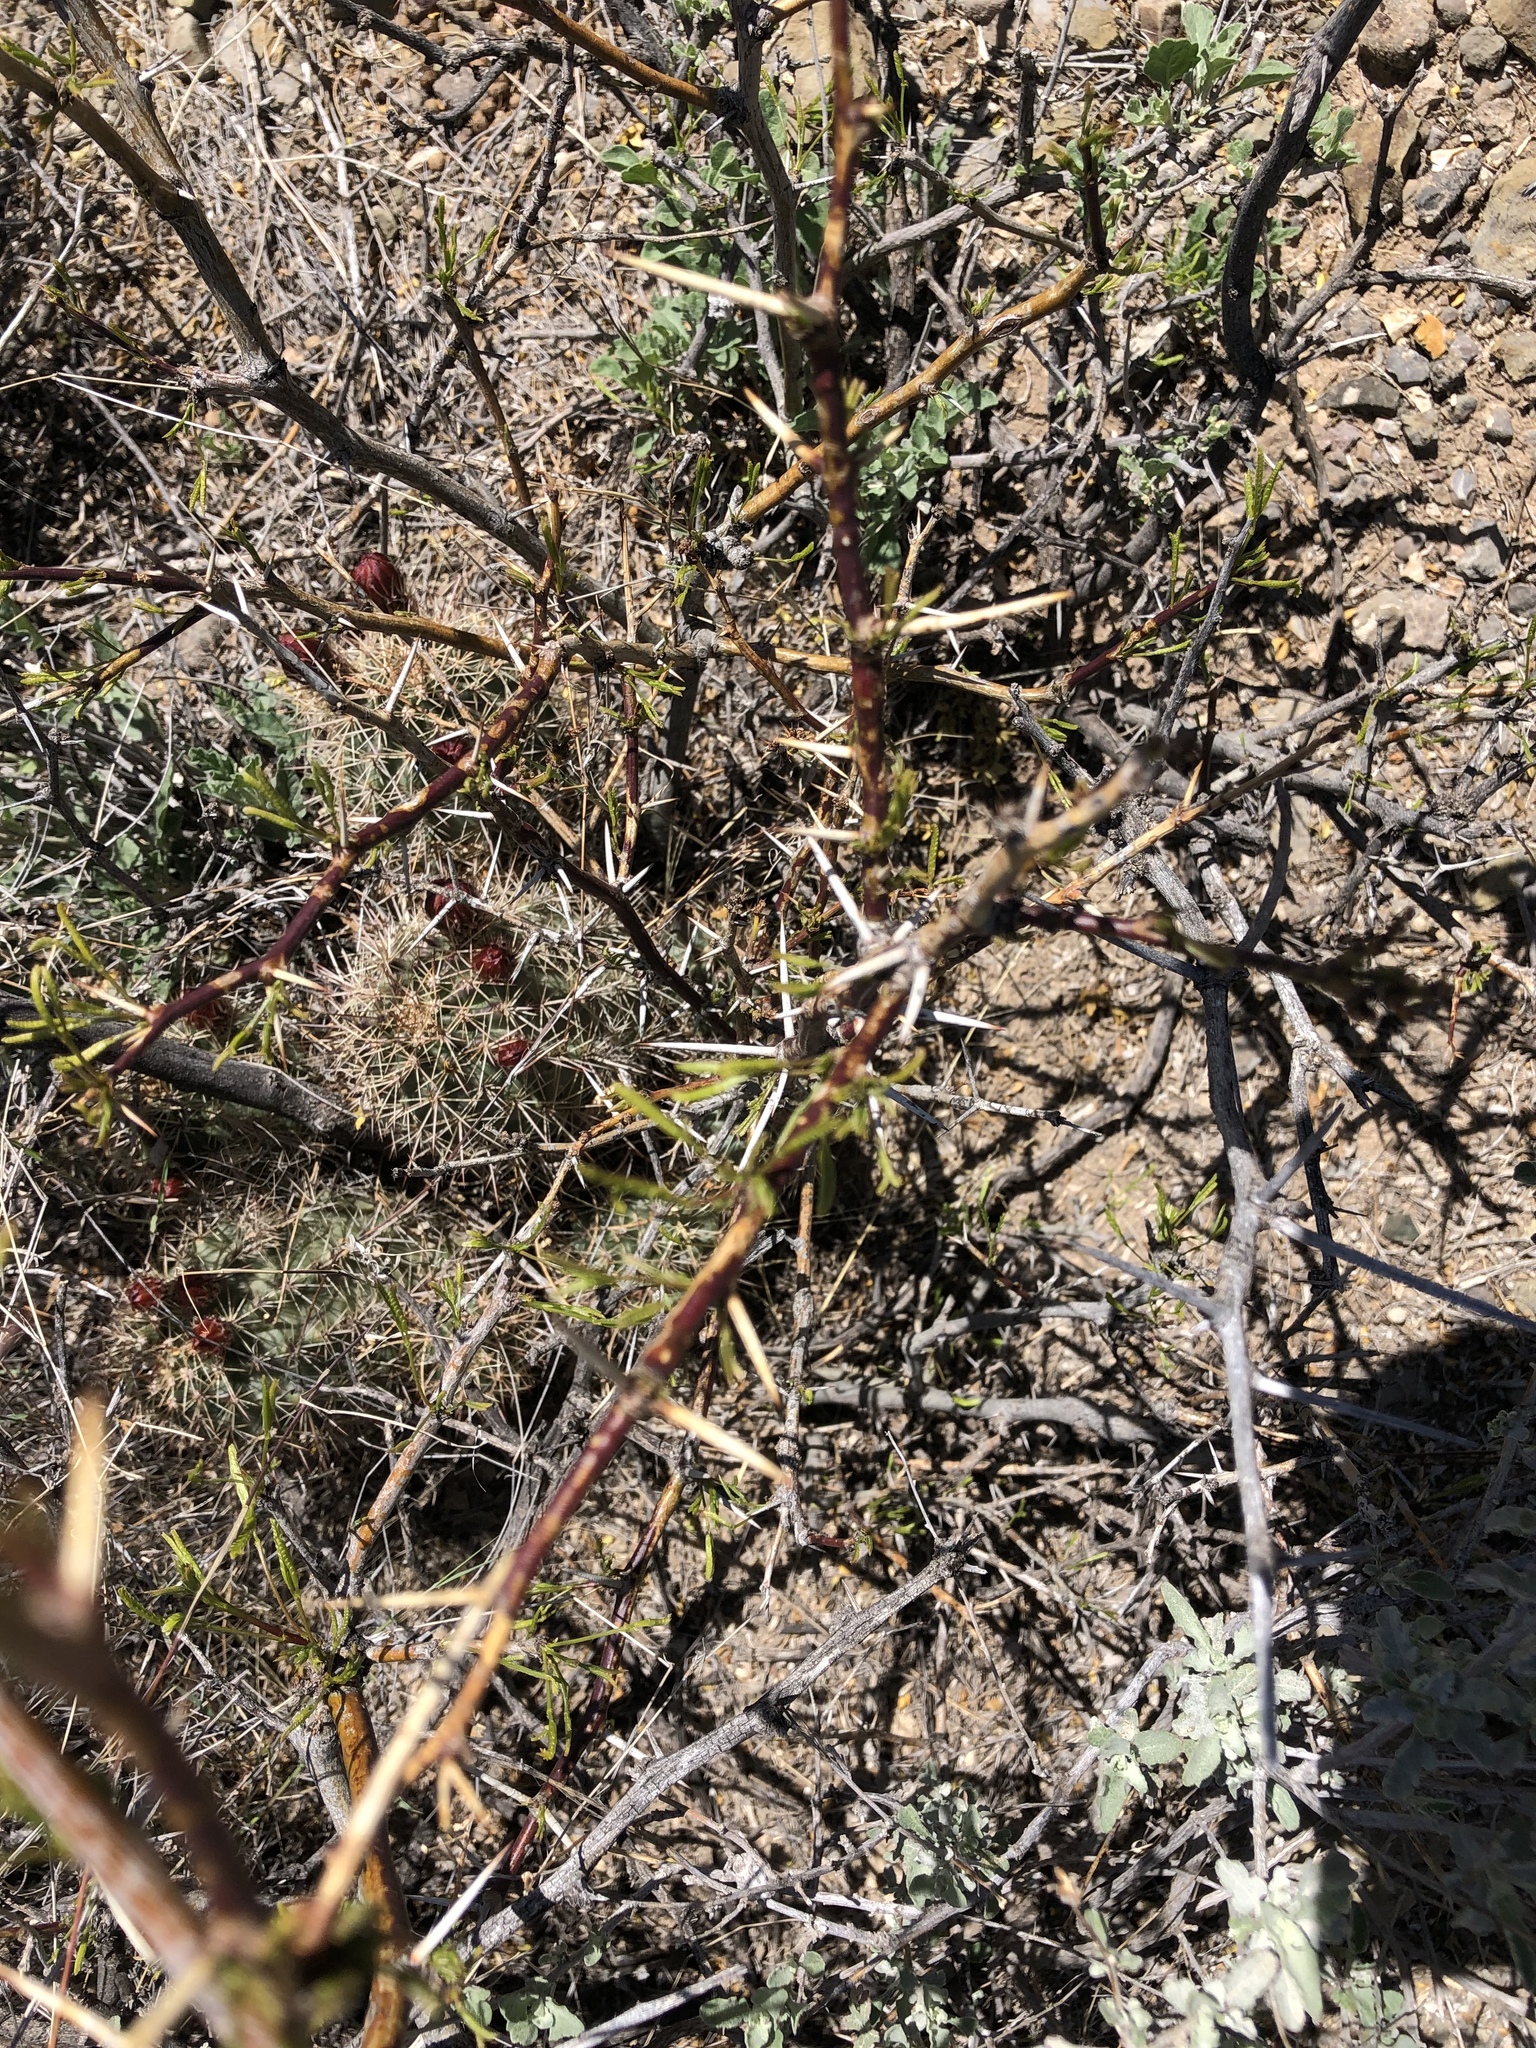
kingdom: Plantae
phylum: Tracheophyta
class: Magnoliopsida
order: Fabales
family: Fabaceae
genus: Prosopis
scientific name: Prosopis glandulosa
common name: Honey mesquite
